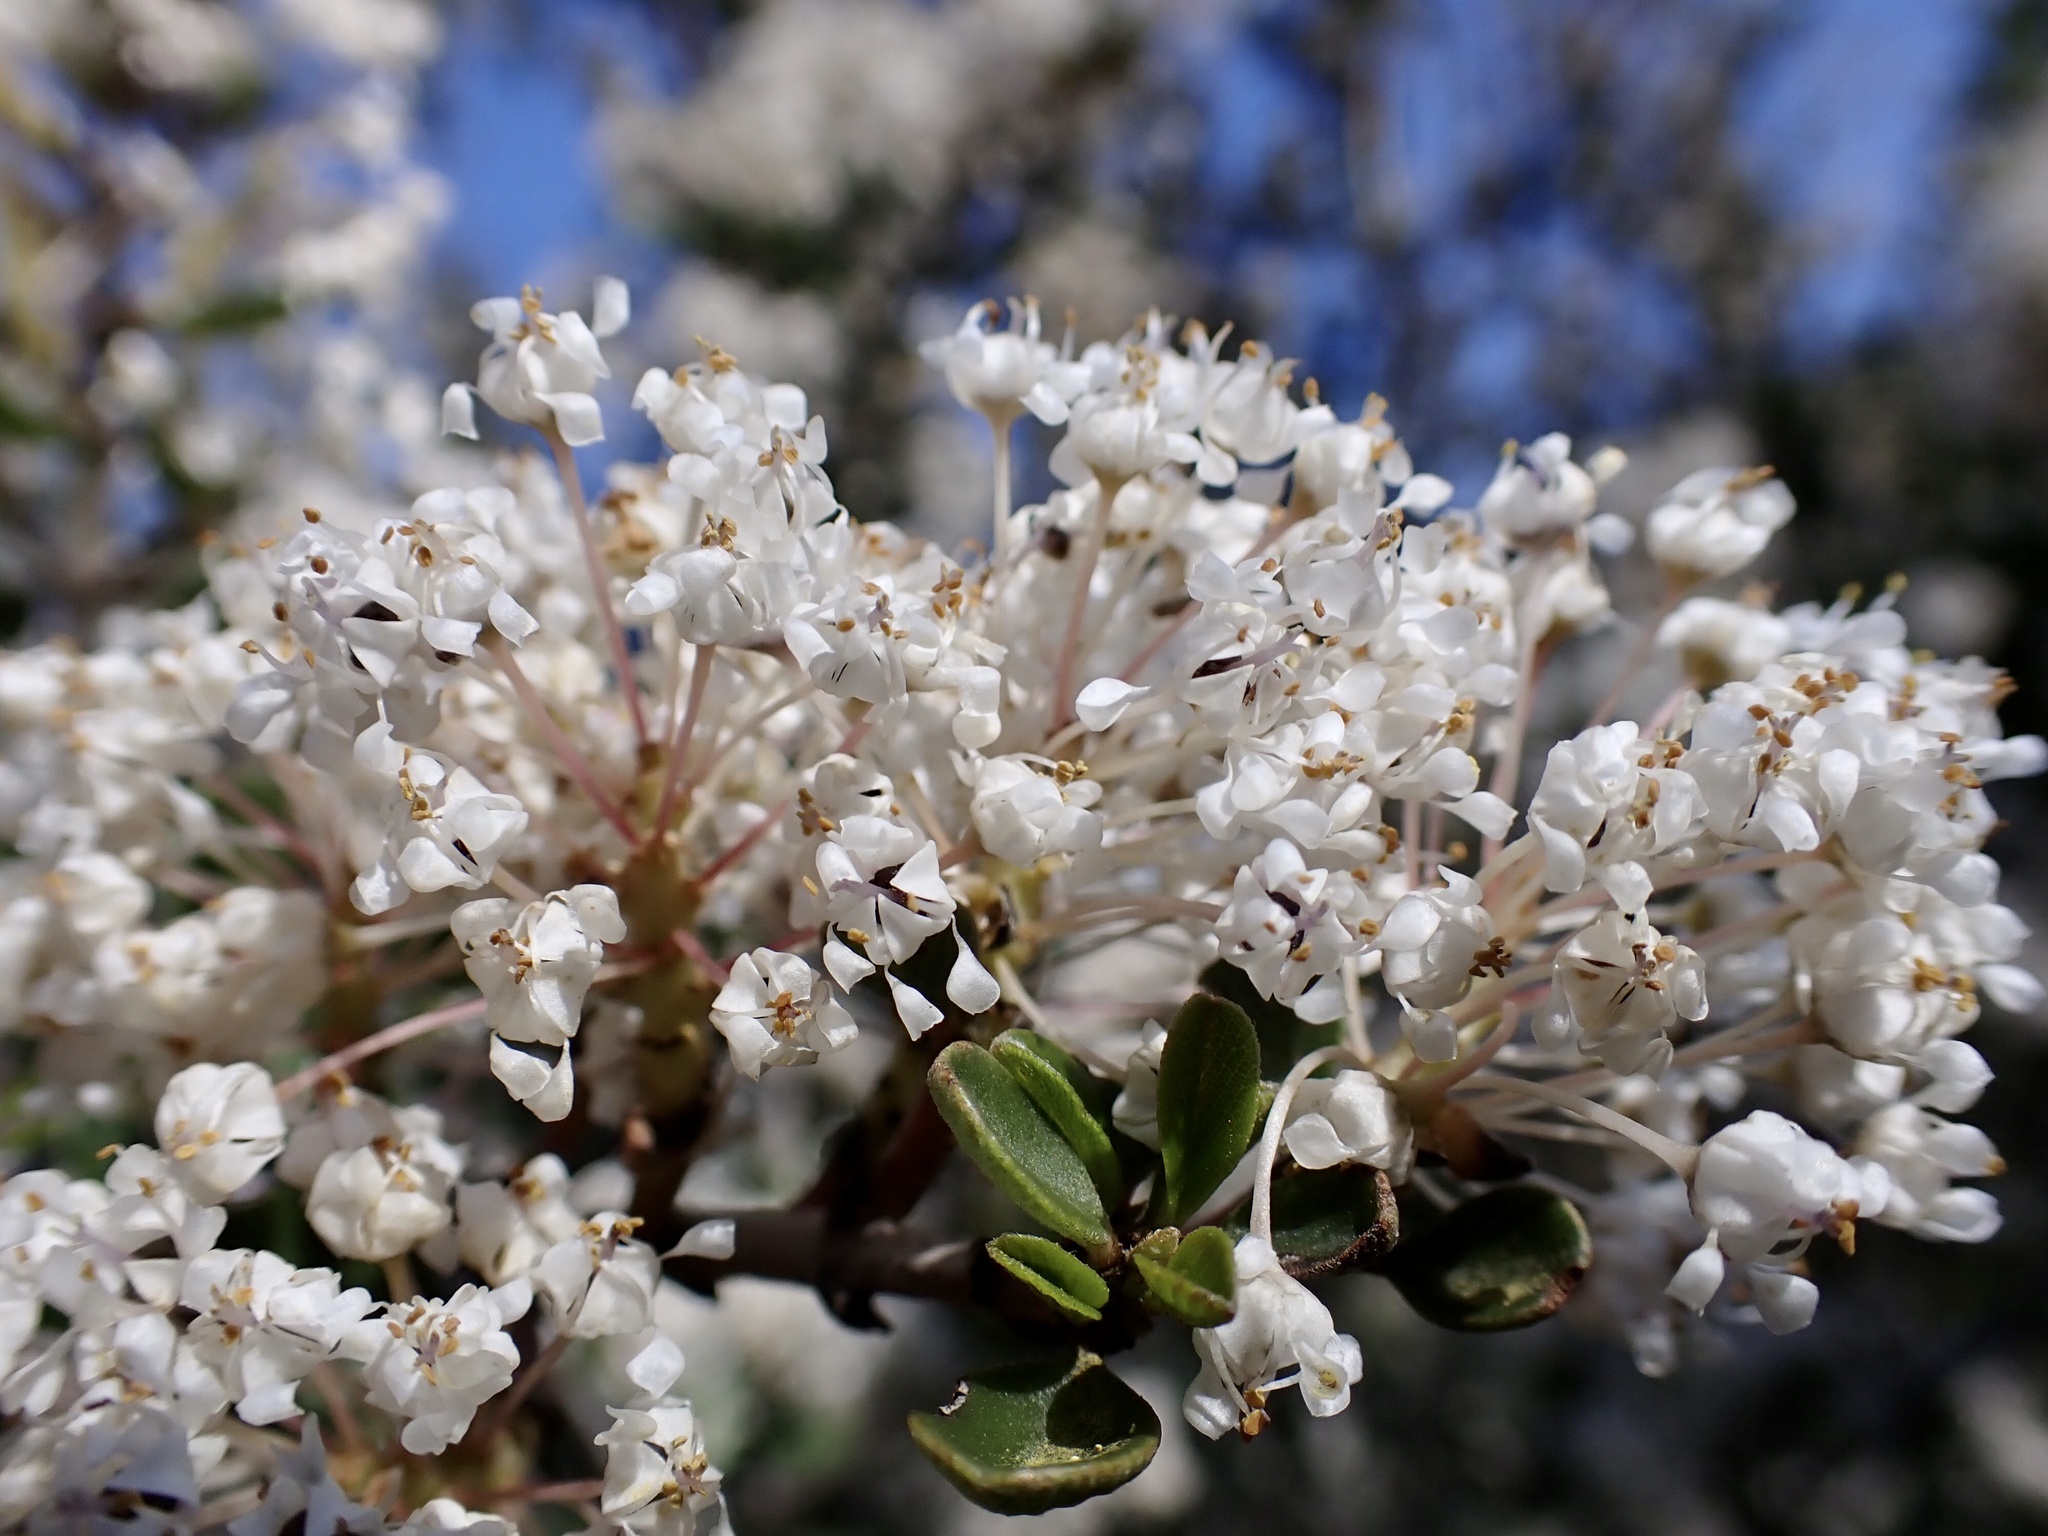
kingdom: Plantae
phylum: Tracheophyta
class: Magnoliopsida
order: Rosales
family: Rhamnaceae
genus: Ceanothus
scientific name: Ceanothus cuneatus
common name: Cuneate ceanothus
